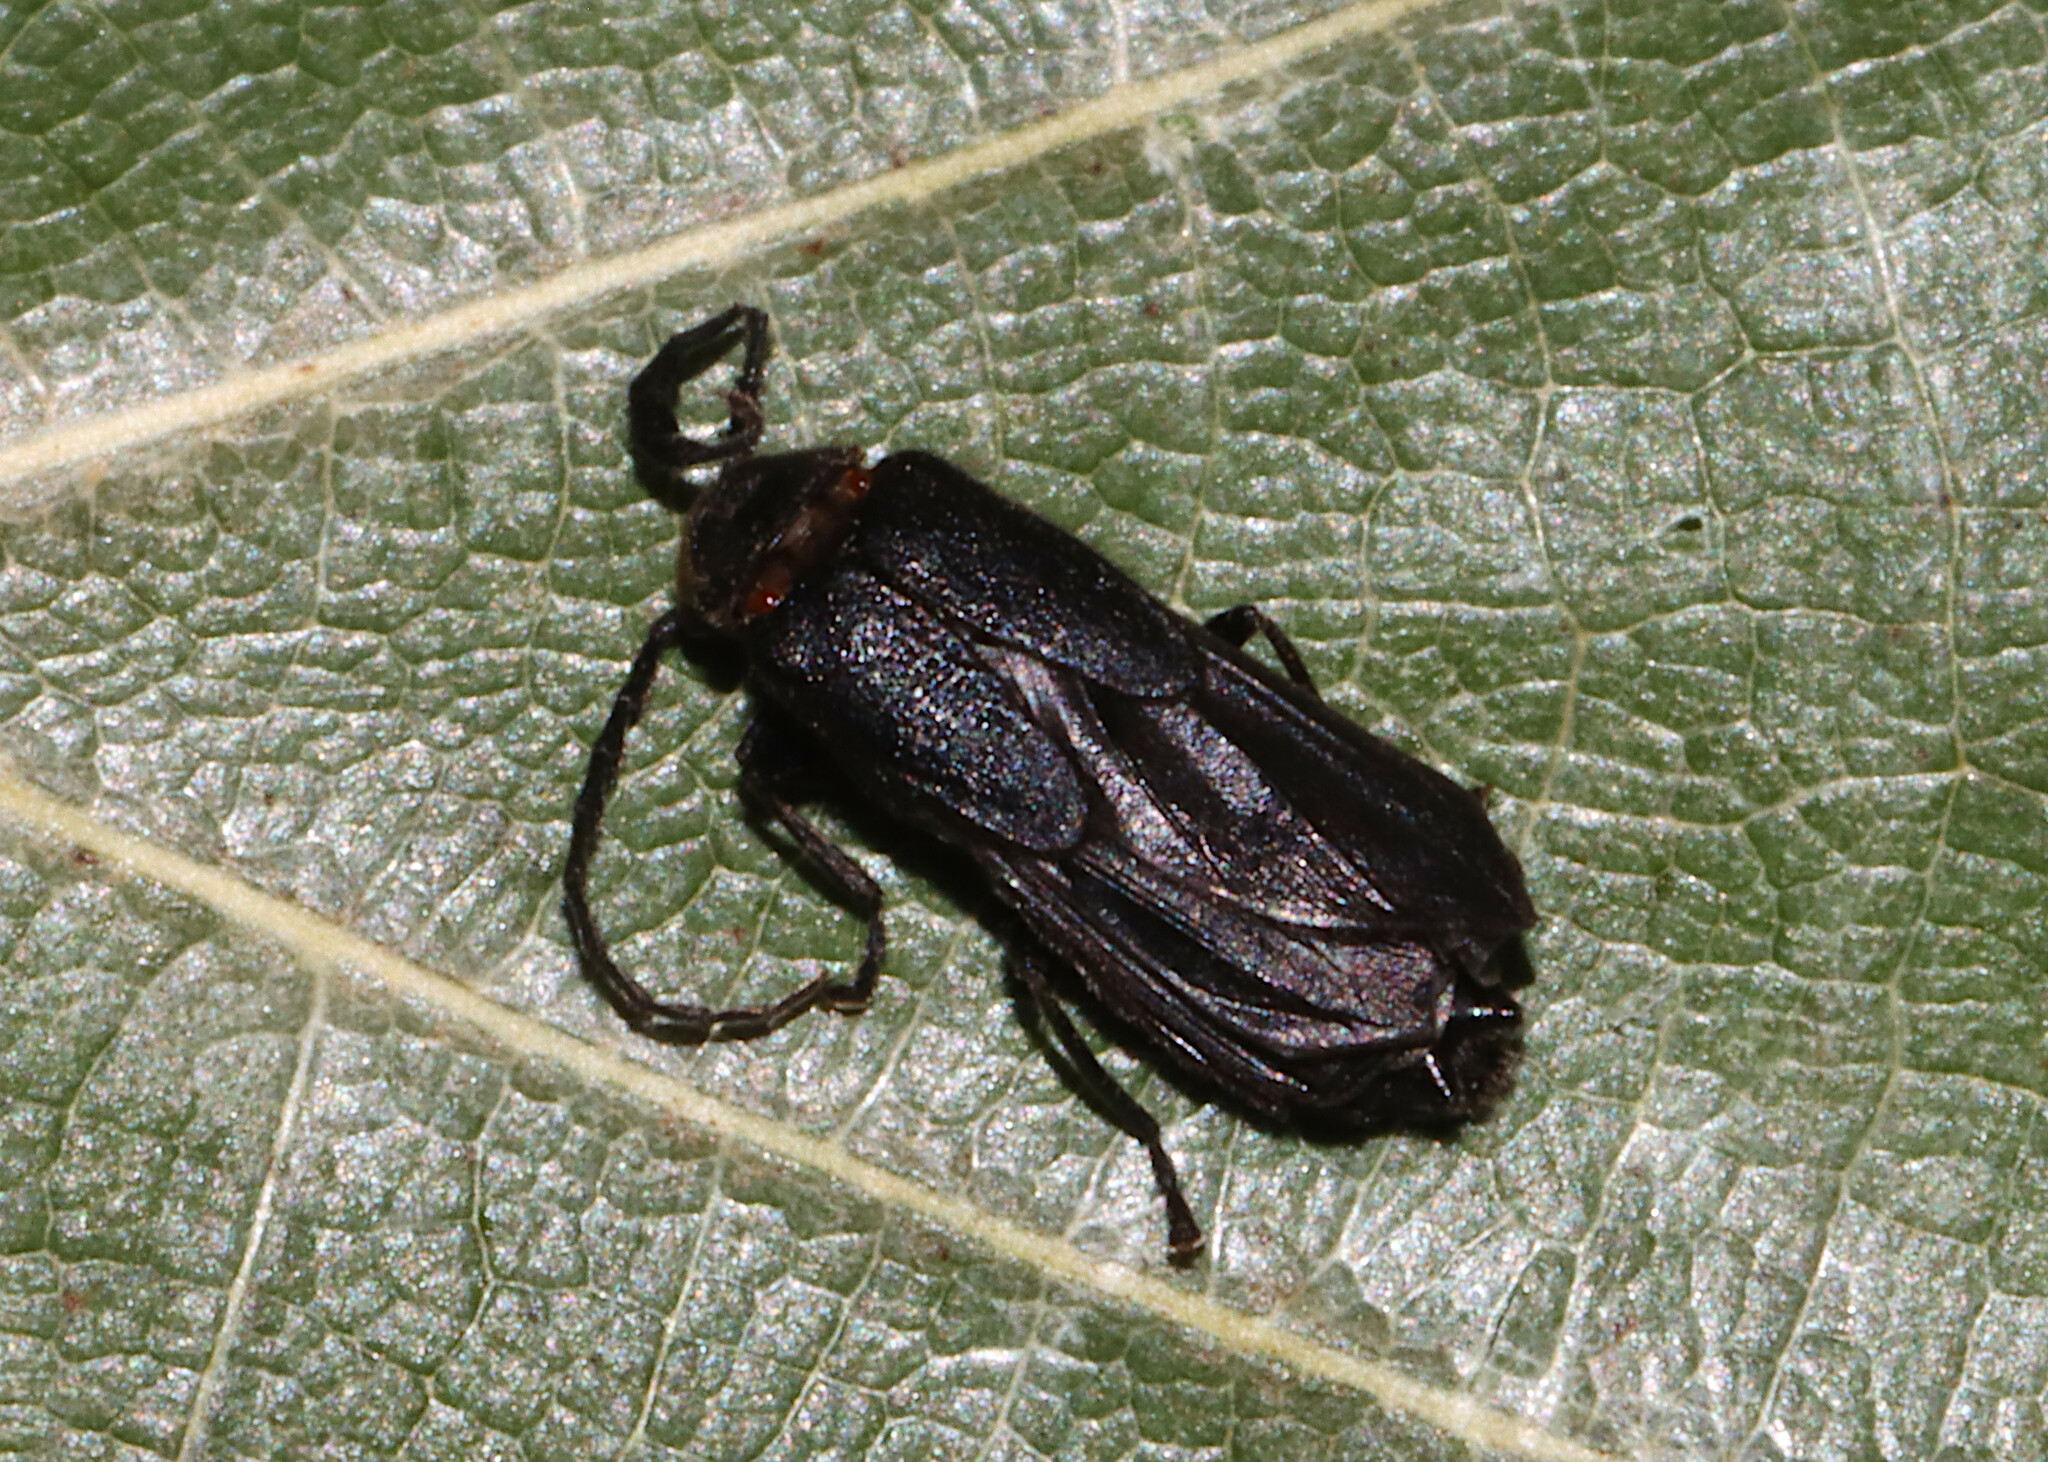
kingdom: Animalia
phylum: Arthropoda
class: Insecta
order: Coleoptera
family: Cantharidae
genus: Tytthonyx
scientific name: Tytthonyx erythrocephalus
